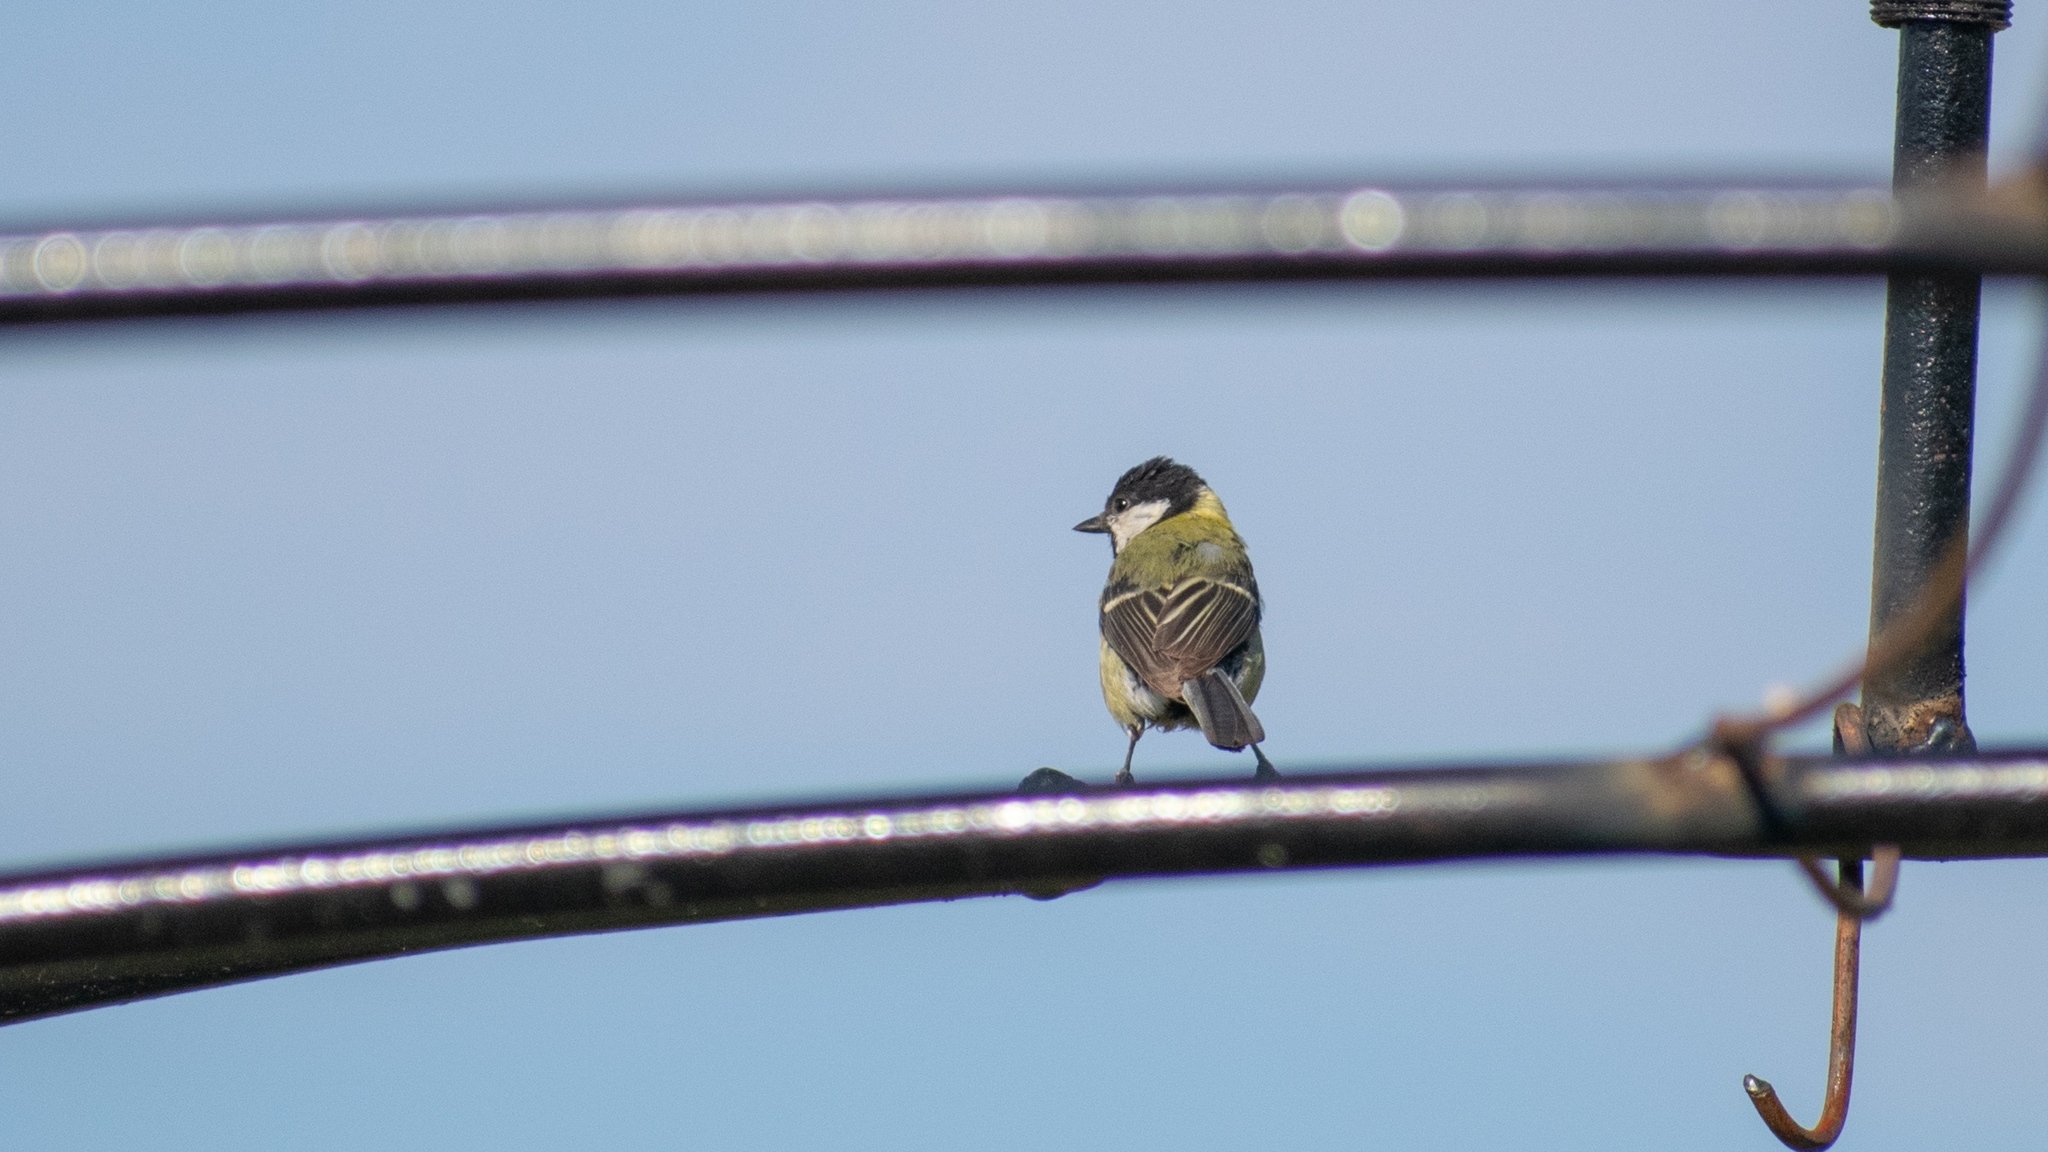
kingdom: Animalia
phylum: Chordata
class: Aves
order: Passeriformes
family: Paridae
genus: Parus
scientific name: Parus major
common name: Great tit
